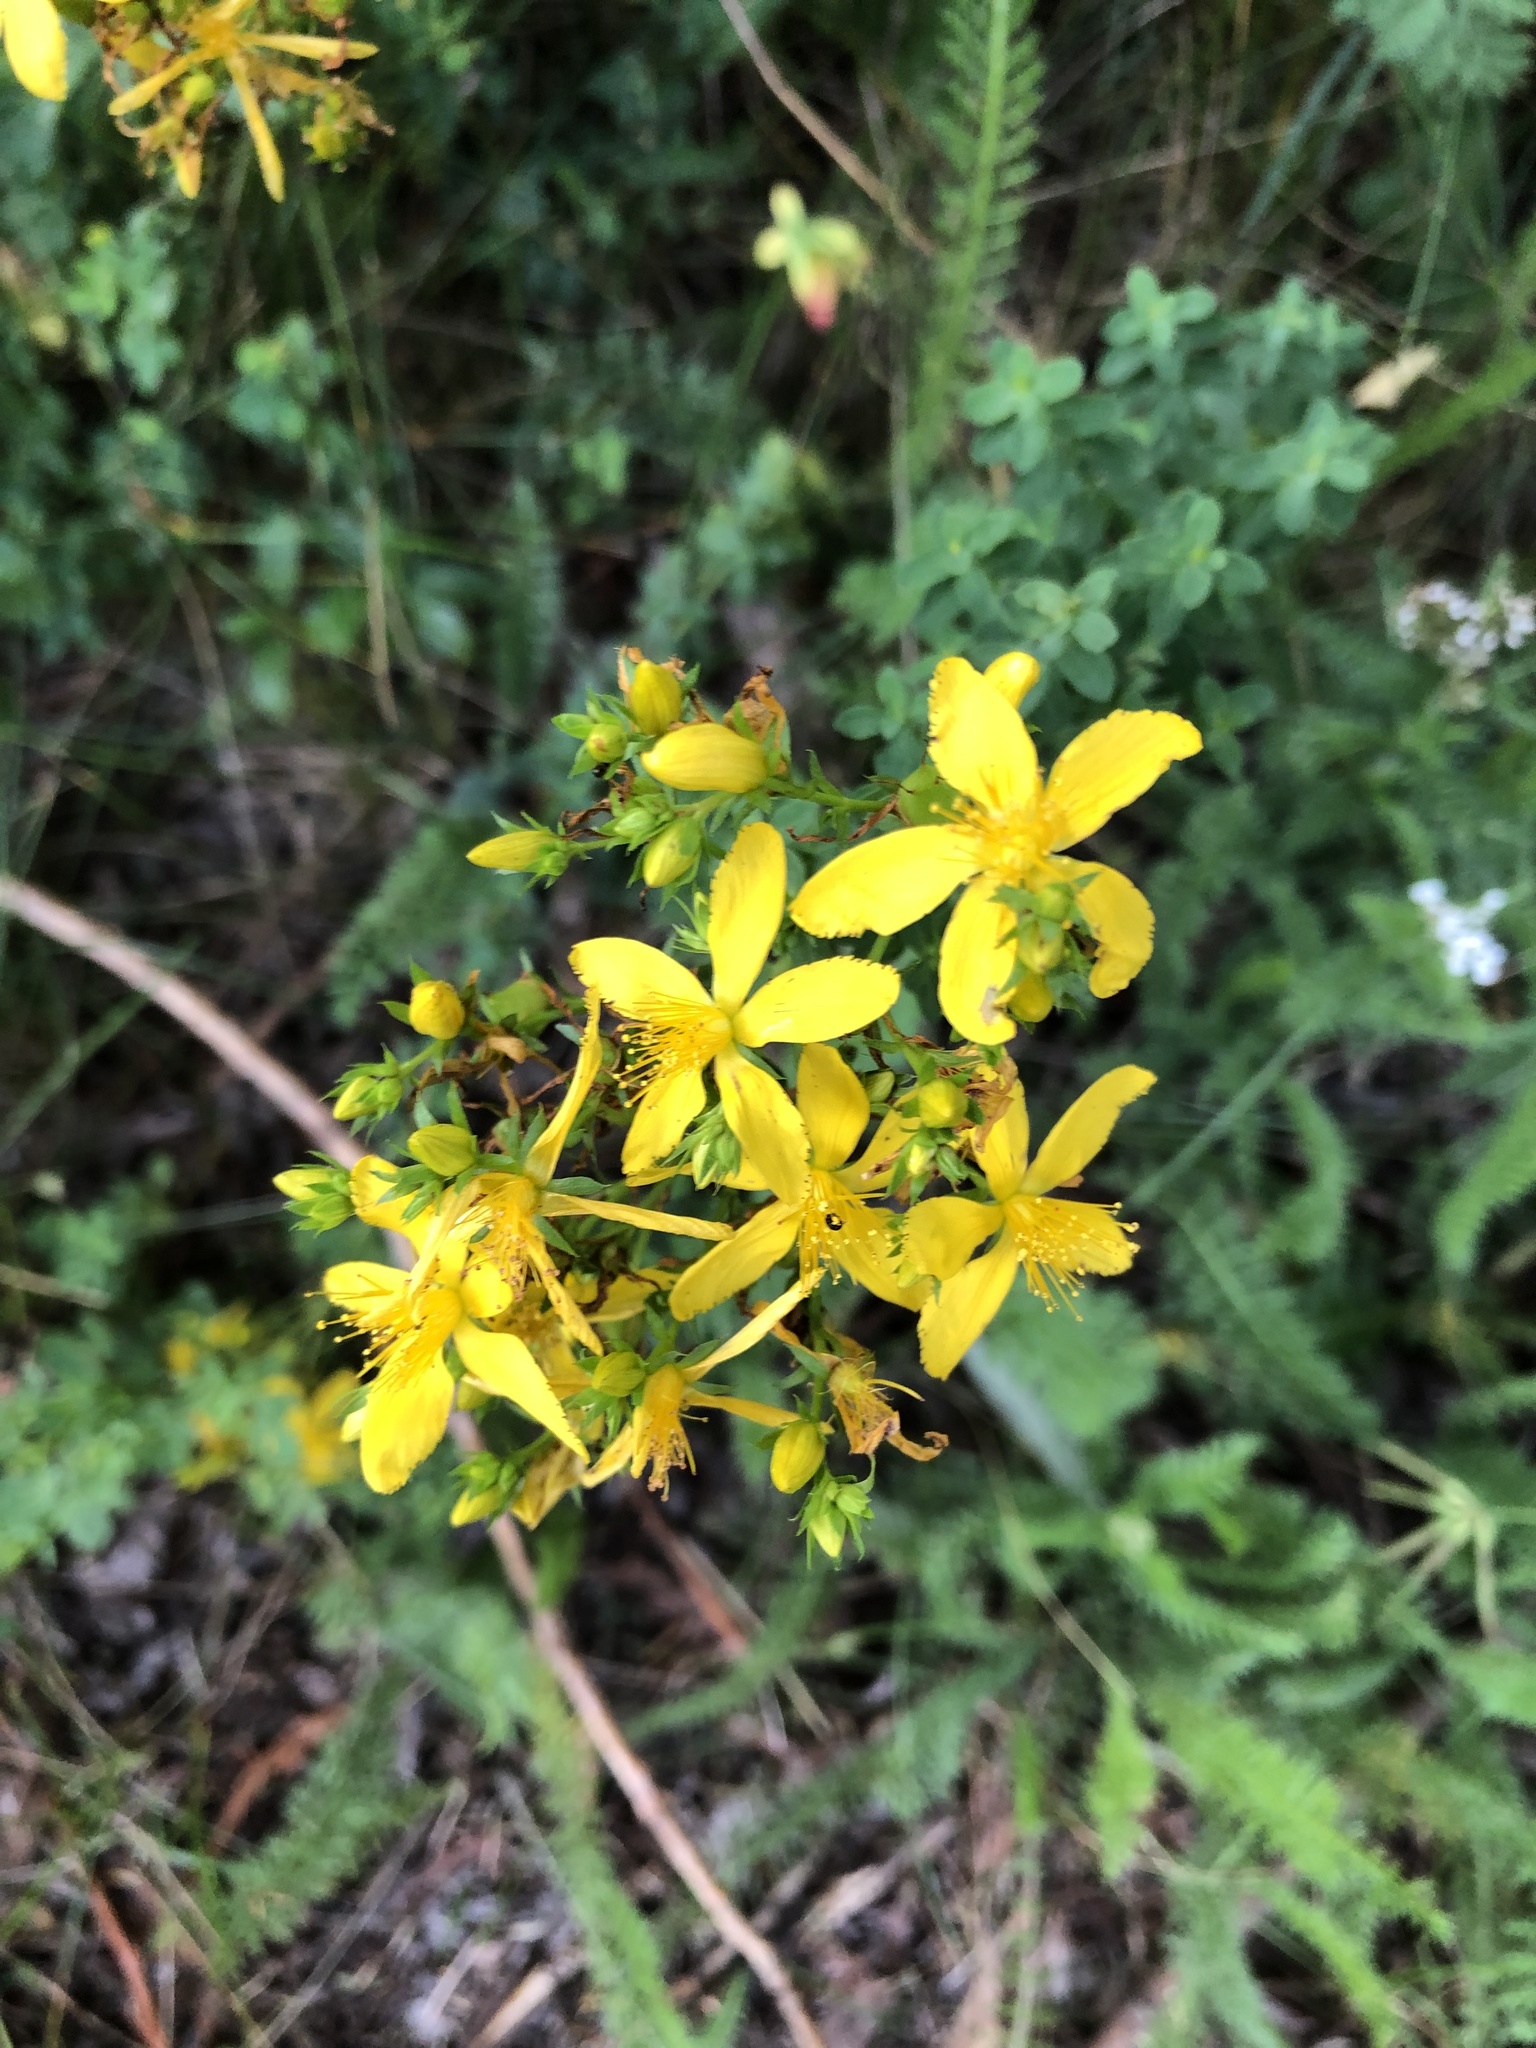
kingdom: Plantae
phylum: Tracheophyta
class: Magnoliopsida
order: Malpighiales
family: Hypericaceae
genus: Hypericum
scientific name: Hypericum perforatum
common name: Common st. johnswort
